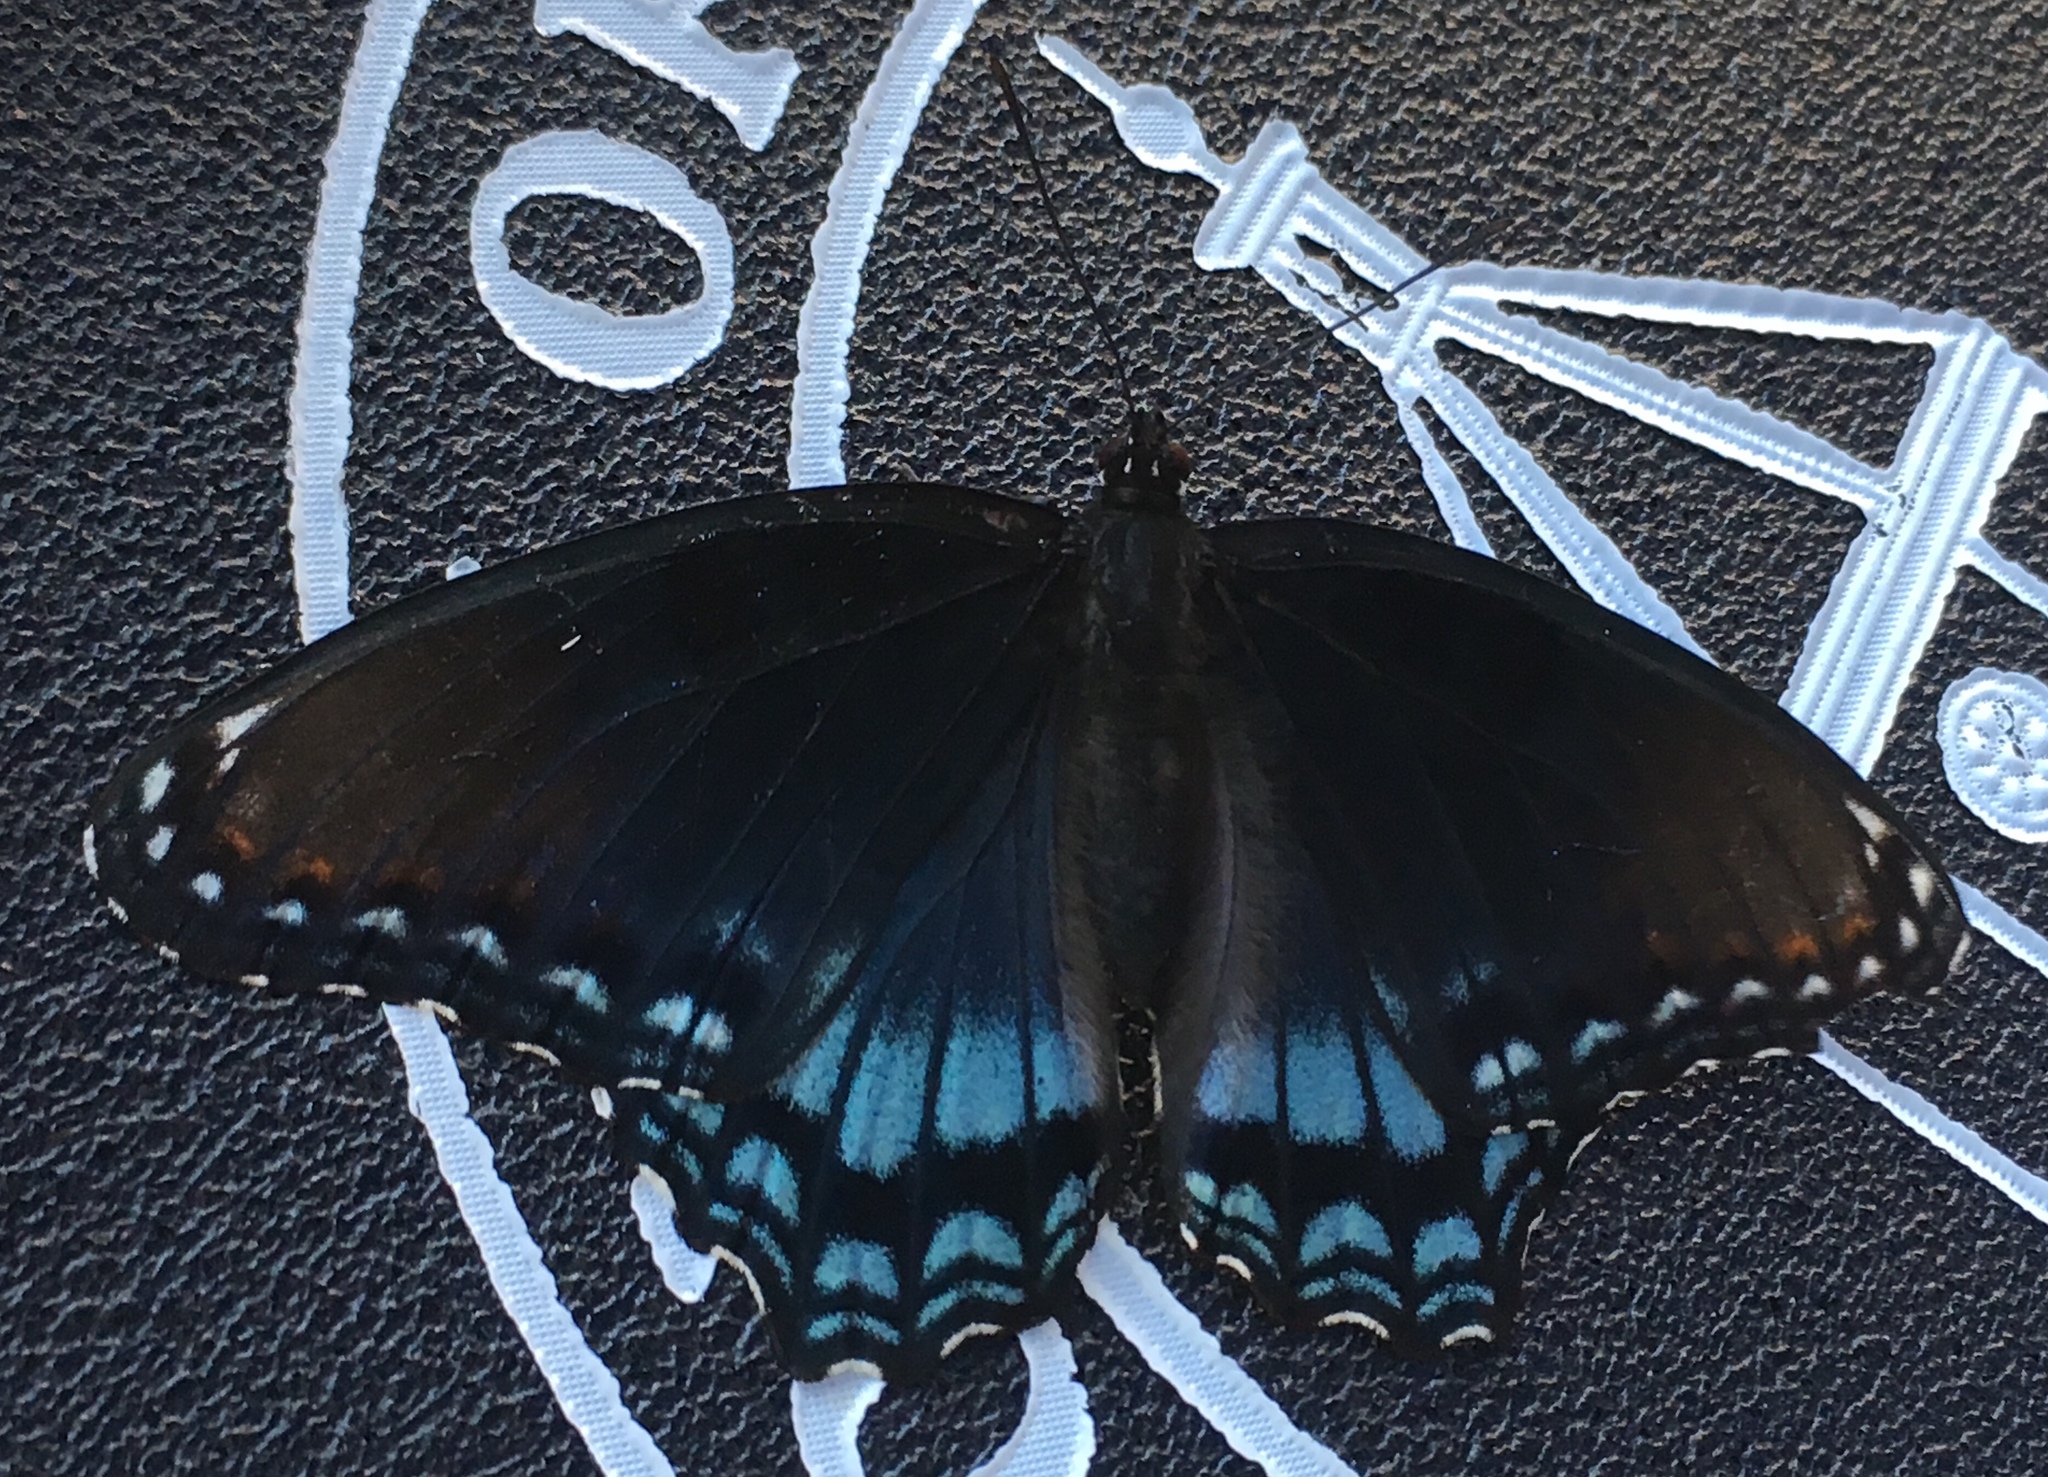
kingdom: Animalia
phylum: Arthropoda
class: Insecta
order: Lepidoptera
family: Nymphalidae
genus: Limenitis
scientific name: Limenitis arthemis
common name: Red-spotted admiral
